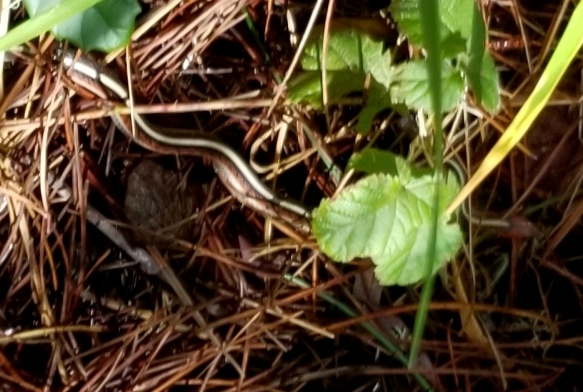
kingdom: Animalia
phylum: Chordata
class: Squamata
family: Colubridae
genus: Thamnophis
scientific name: Thamnophis sirtalis
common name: Common garter snake
